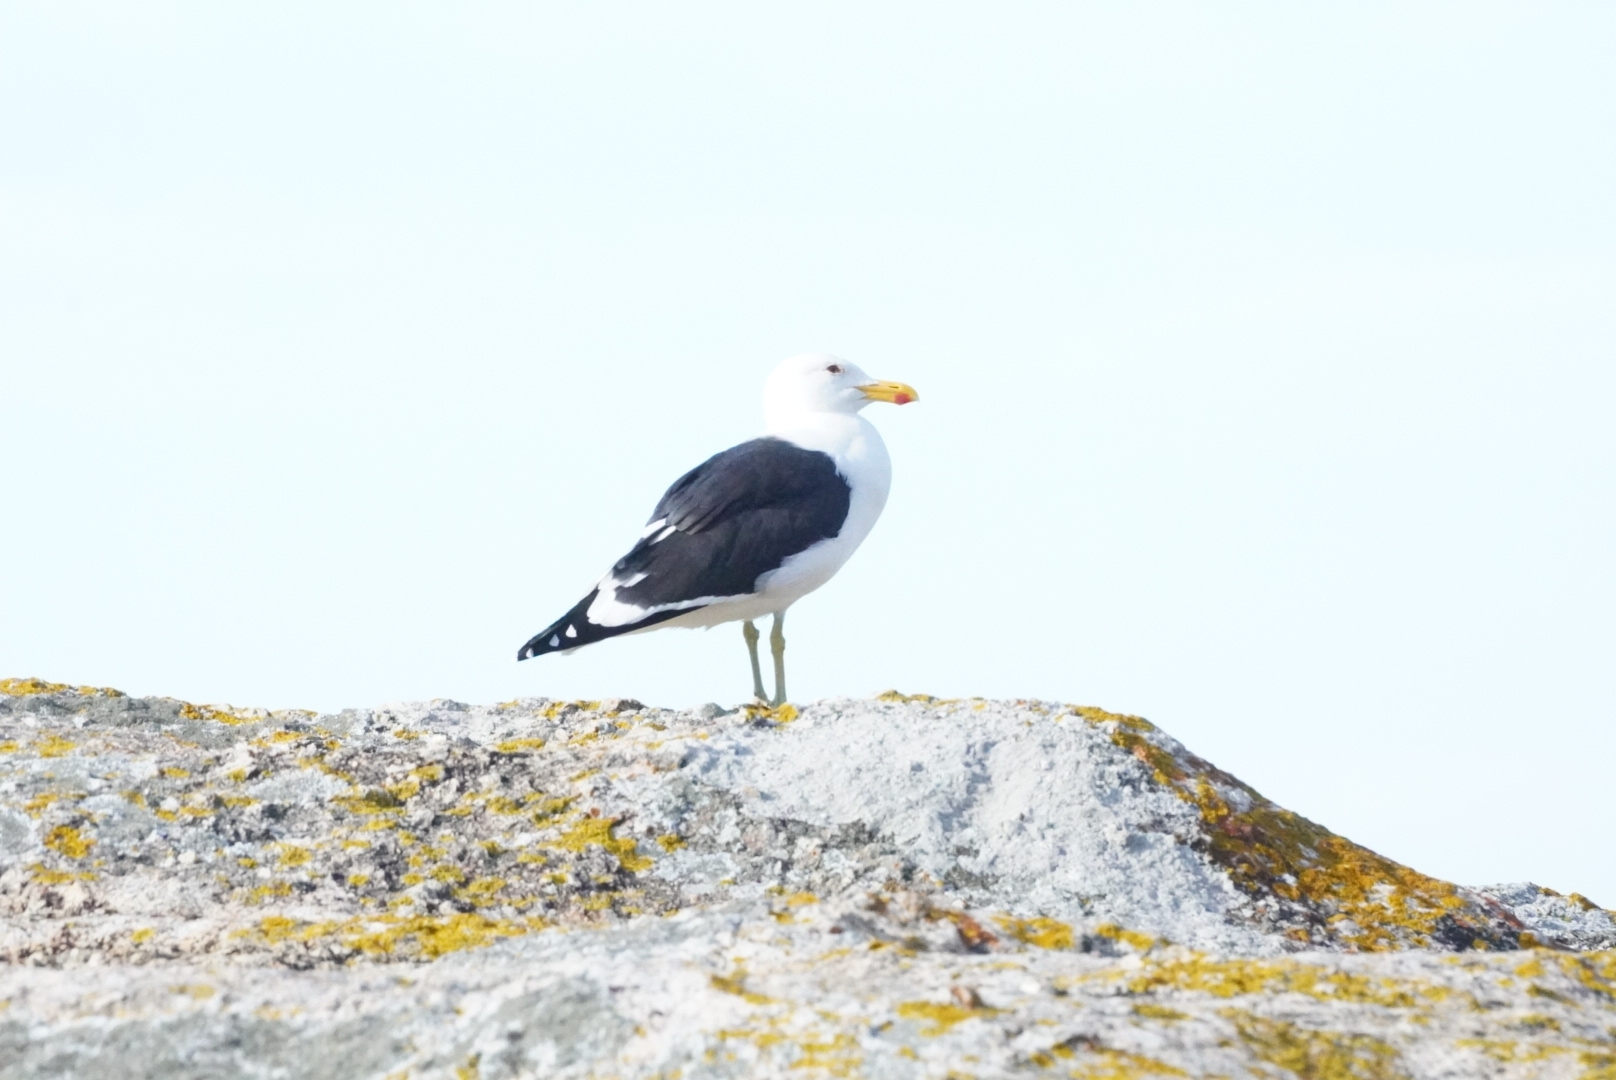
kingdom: Animalia
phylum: Chordata
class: Aves
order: Charadriiformes
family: Laridae
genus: Larus
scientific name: Larus dominicanus
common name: Kelp gull
